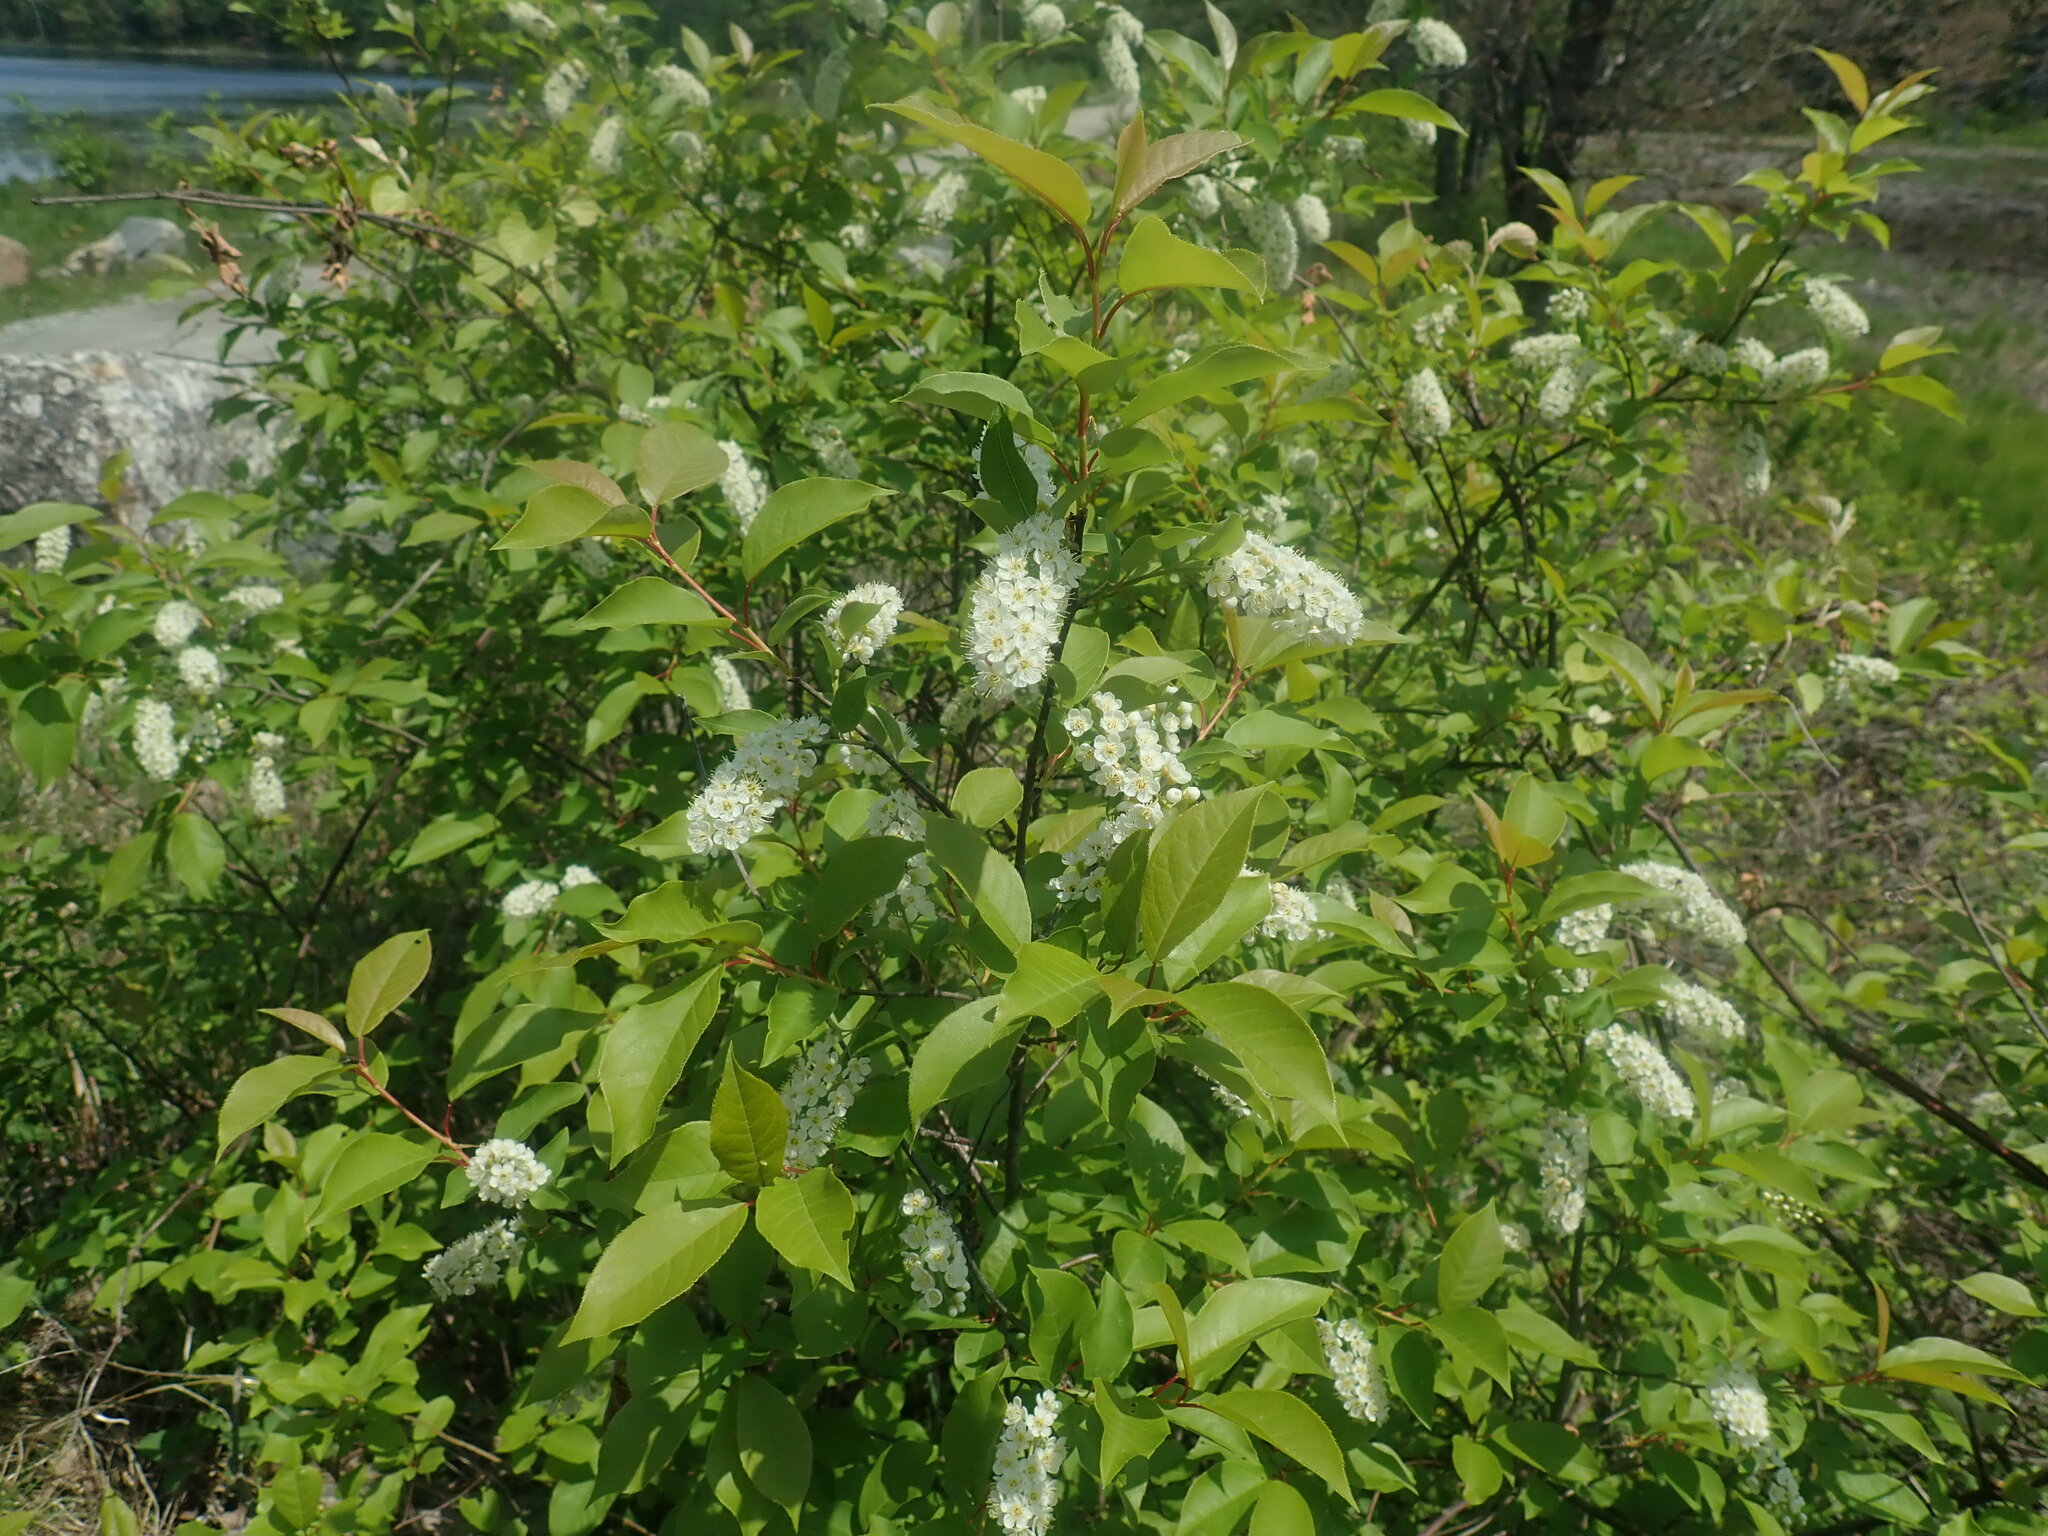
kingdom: Plantae
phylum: Tracheophyta
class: Magnoliopsida
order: Rosales
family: Rosaceae
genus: Prunus
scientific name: Prunus virginiana
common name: Chokecherry
